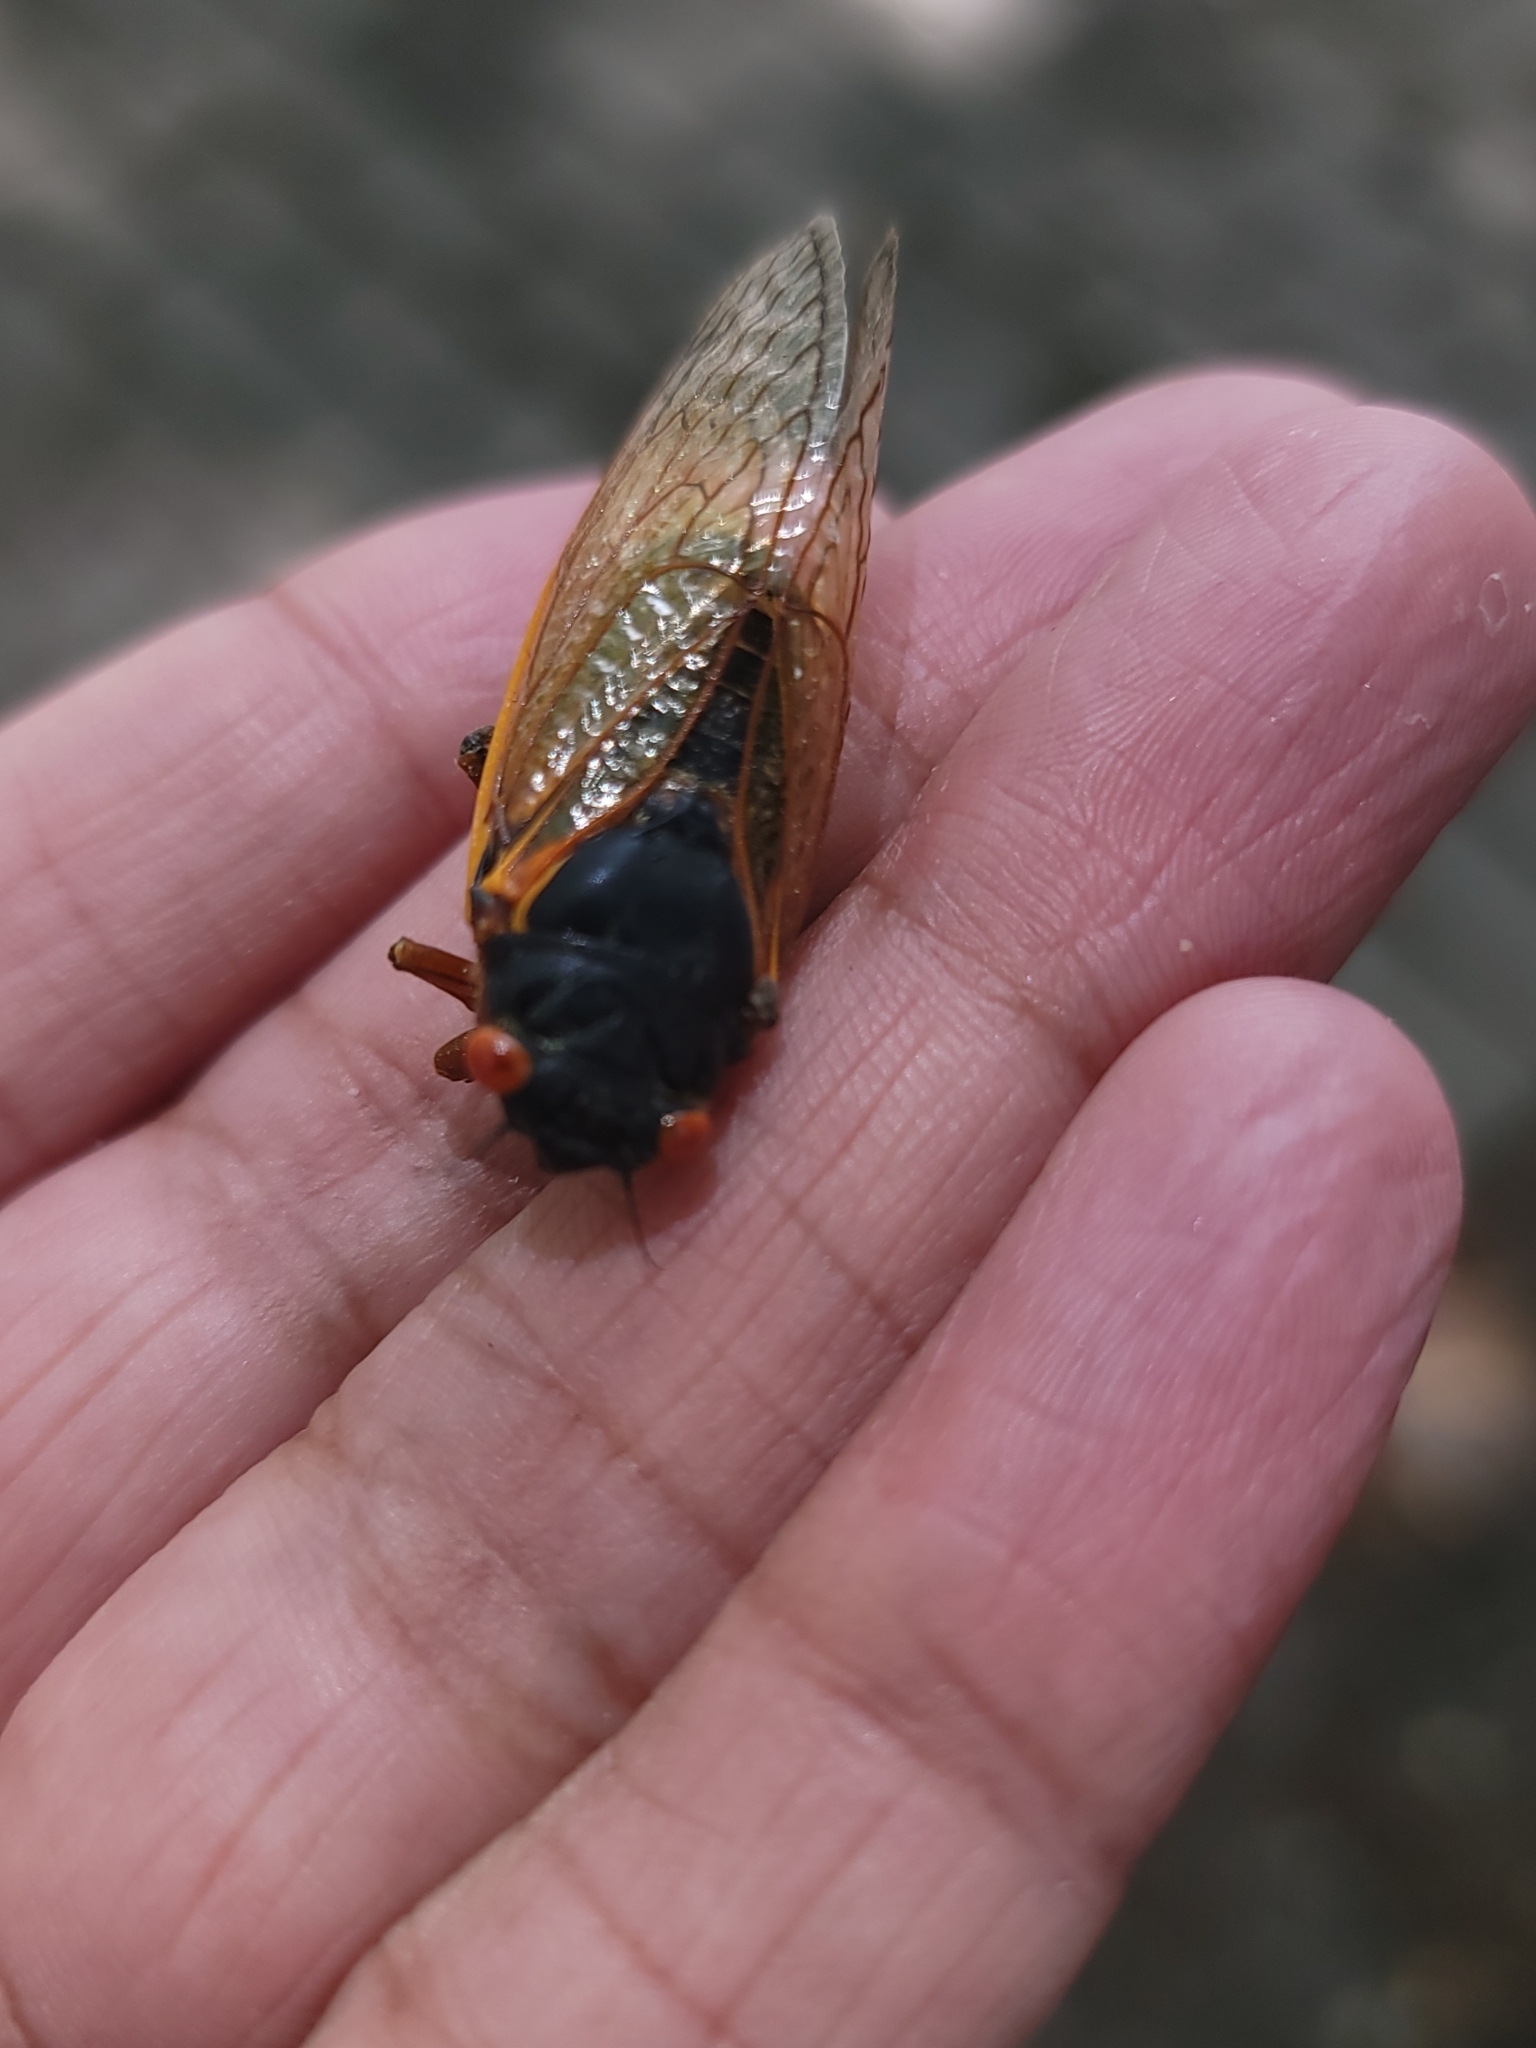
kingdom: Fungi
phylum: Entomophthoromycota
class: Entomophthoromycetes
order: Entomophthorales
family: Entomophthoraceae
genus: Massospora
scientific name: Massospora cicadina
